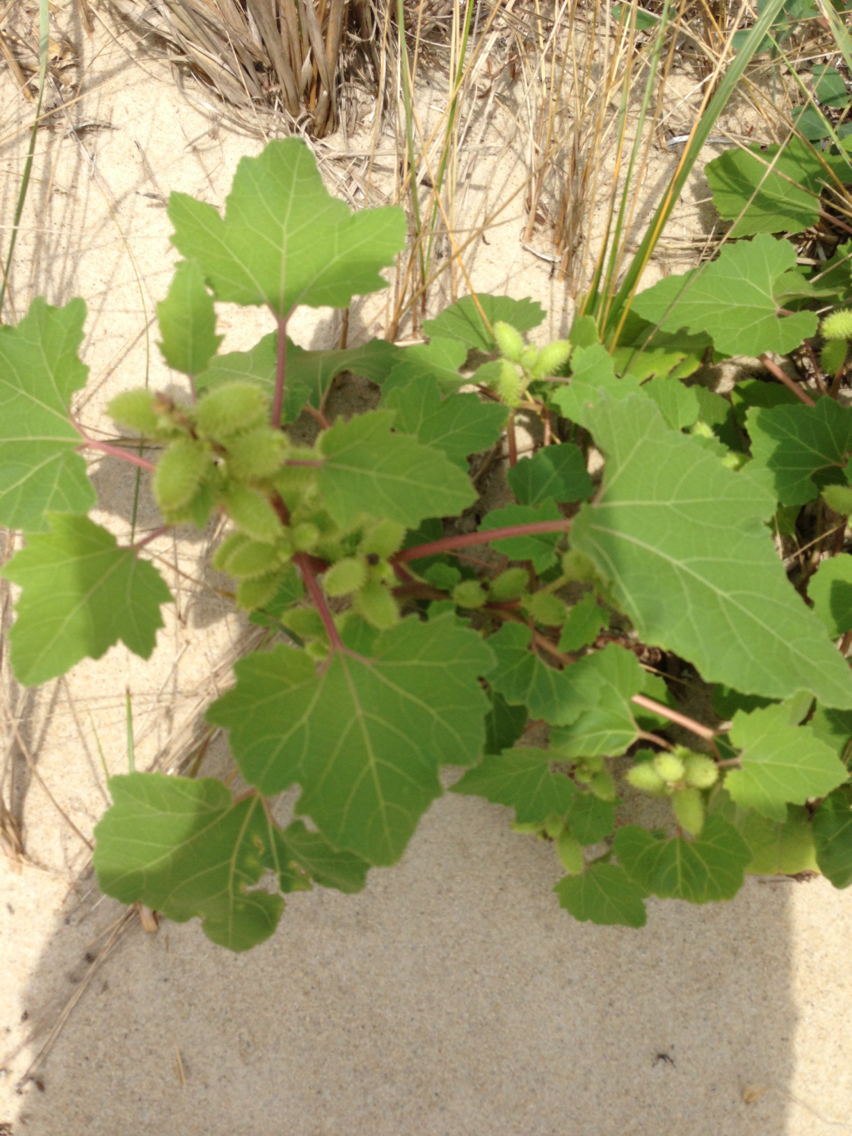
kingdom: Plantae
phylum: Tracheophyta
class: Magnoliopsida
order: Asterales
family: Asteraceae
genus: Xanthium
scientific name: Xanthium strumarium
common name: Rough cocklebur
